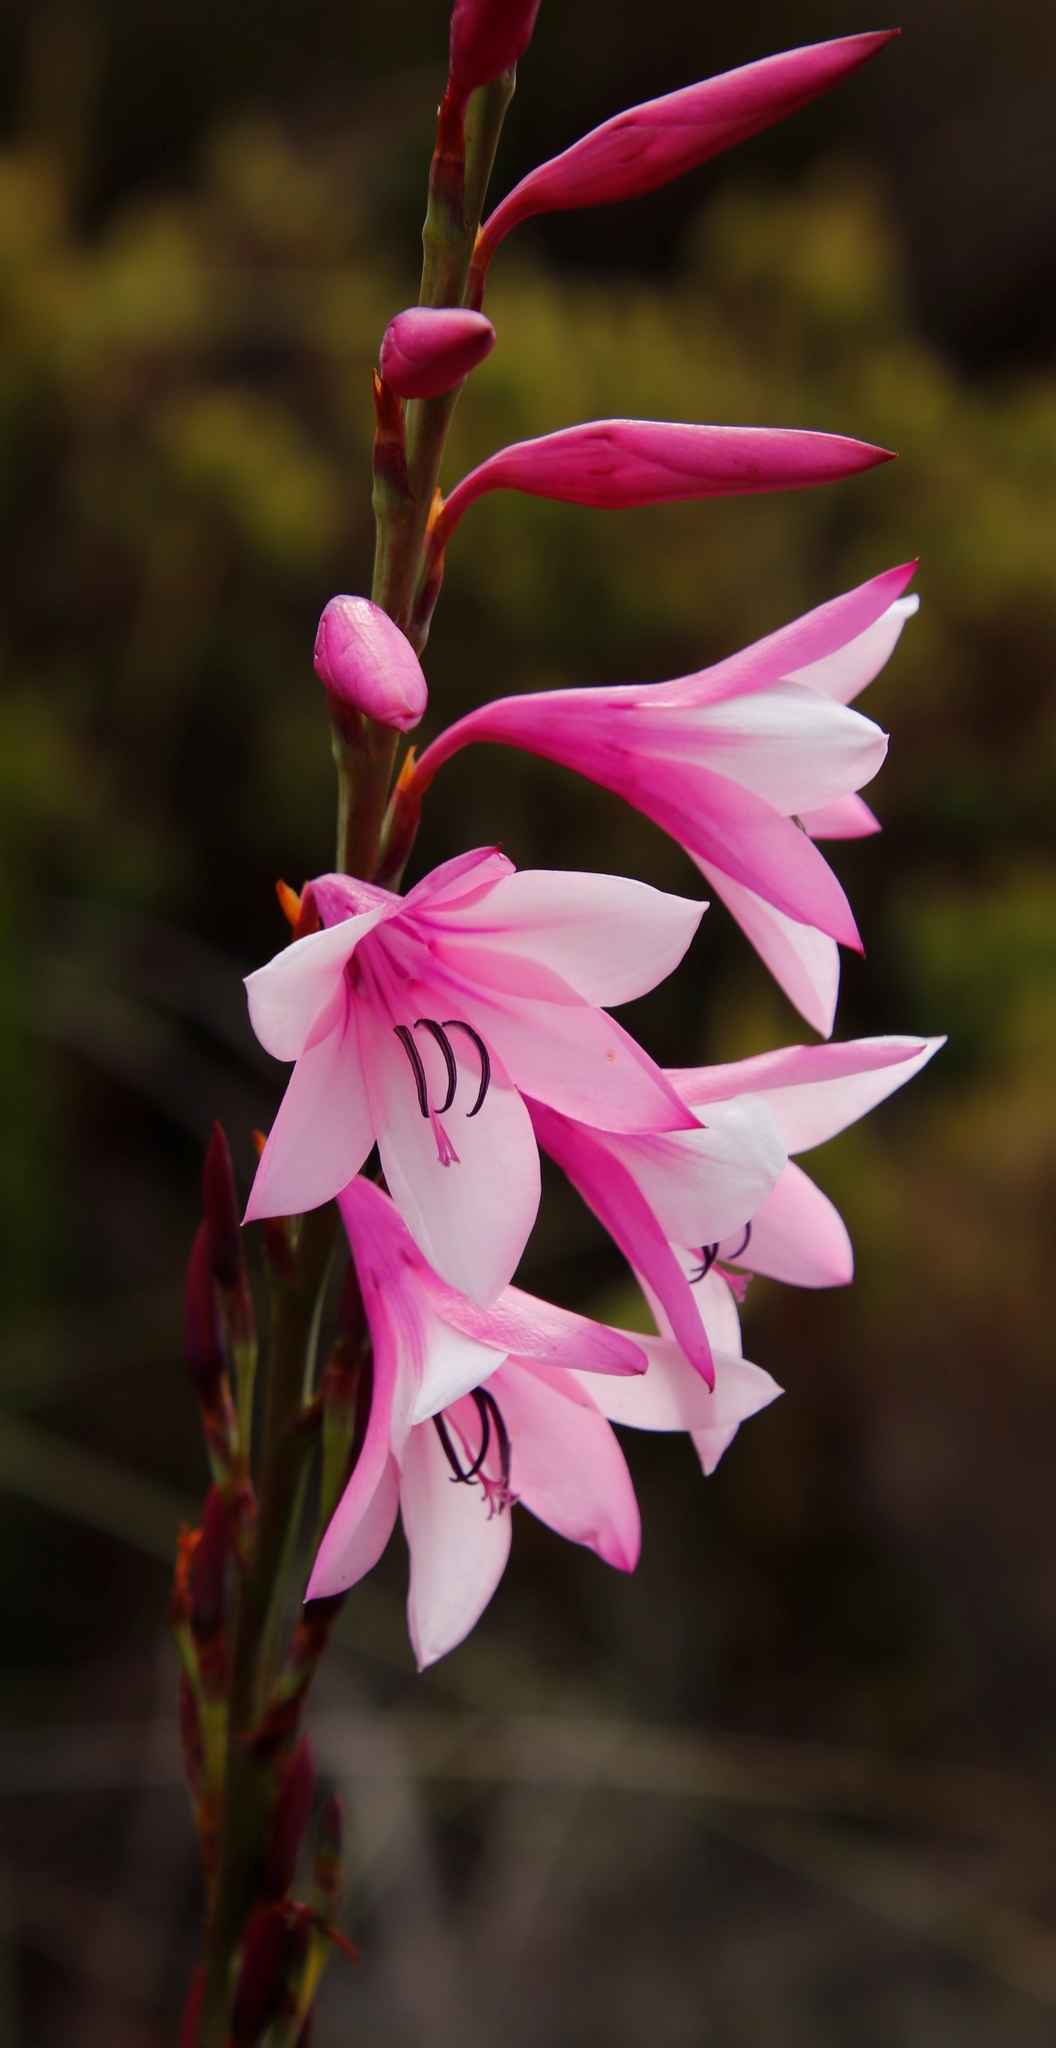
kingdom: Plantae
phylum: Tracheophyta
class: Liliopsida
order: Asparagales
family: Iridaceae
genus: Watsonia
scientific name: Watsonia borbonica
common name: Bugle-lily
